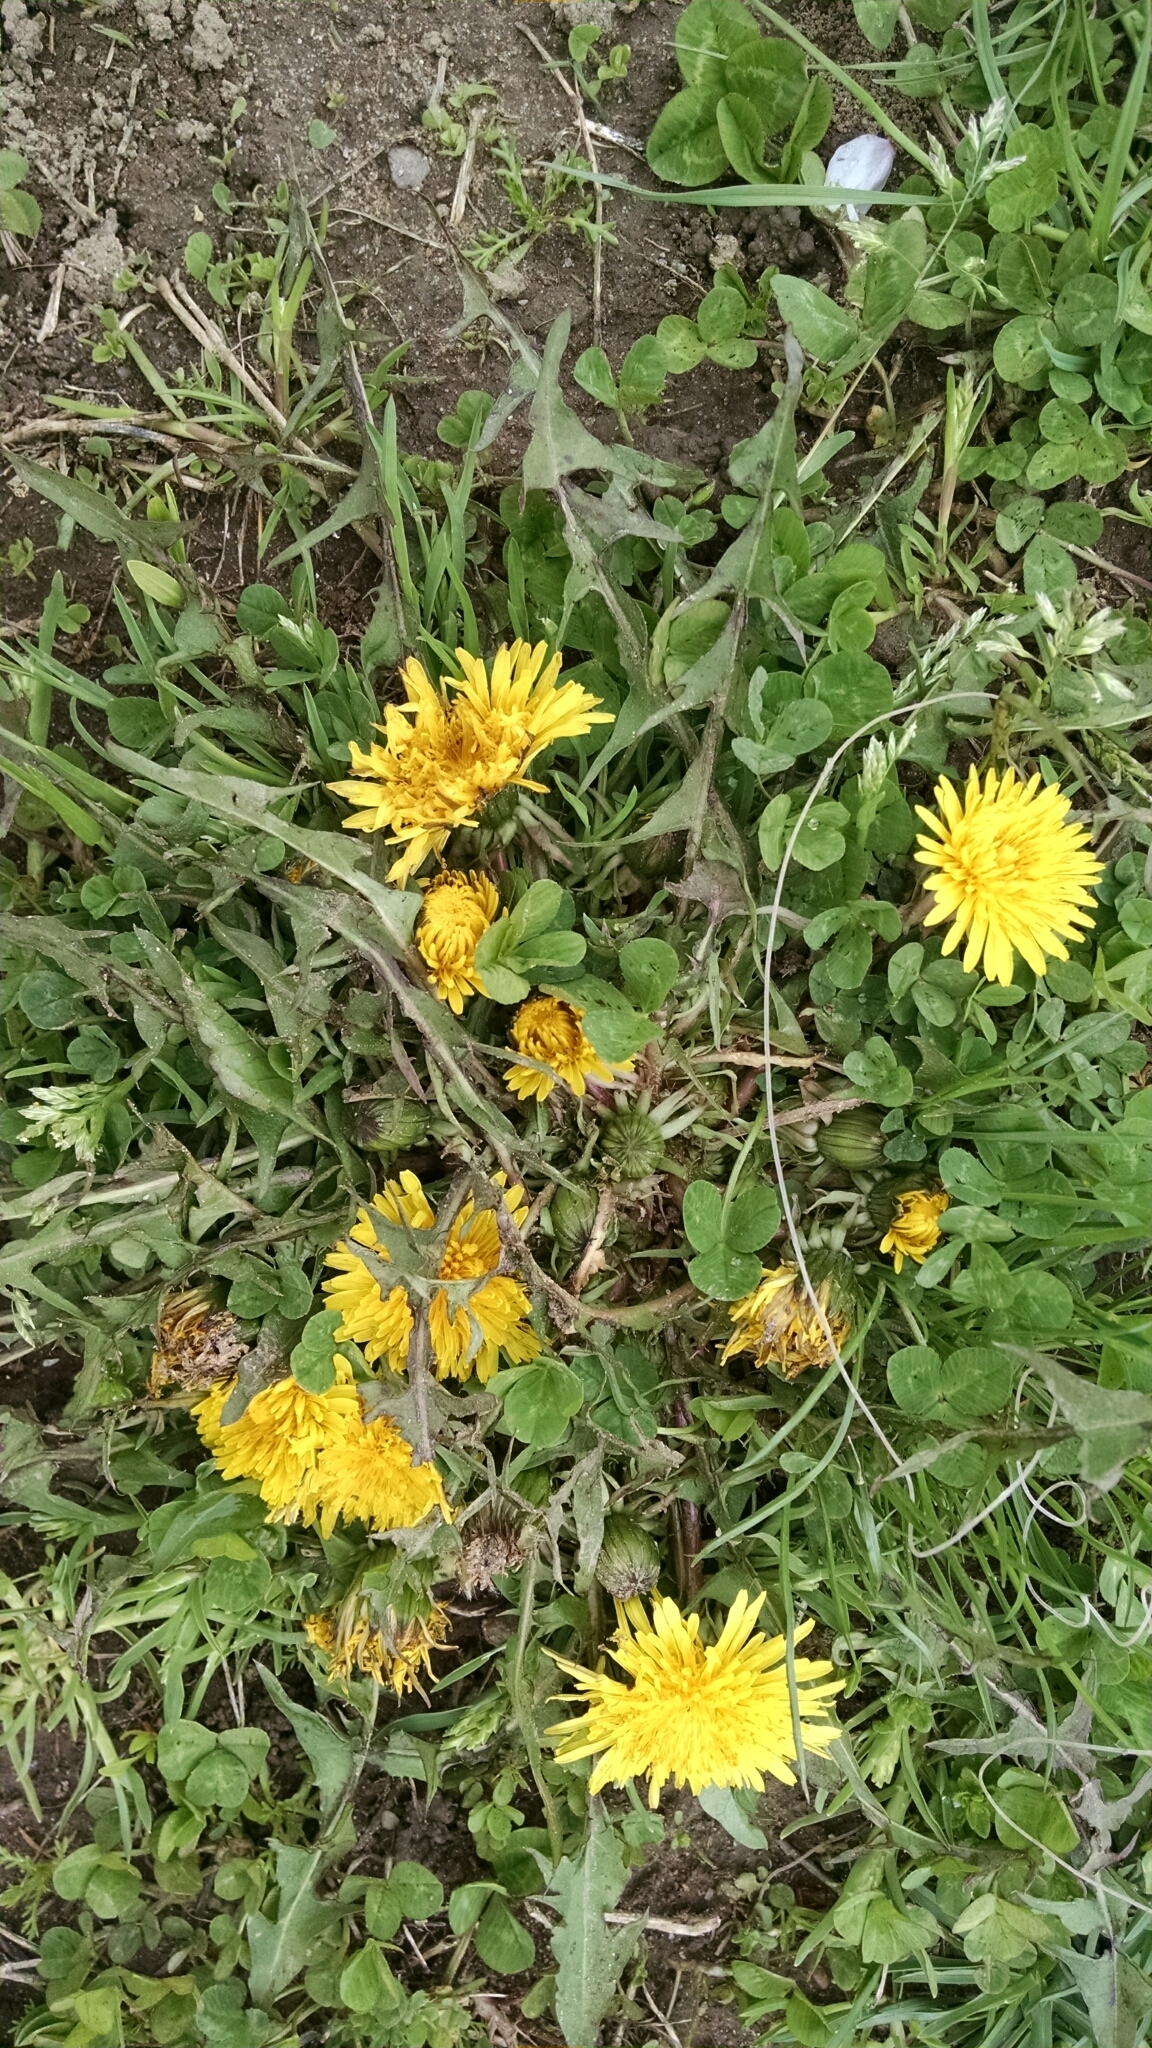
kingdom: Plantae
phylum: Tracheophyta
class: Magnoliopsida
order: Asterales
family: Asteraceae
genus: Taraxacum
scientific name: Taraxacum officinale
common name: Common dandelion
